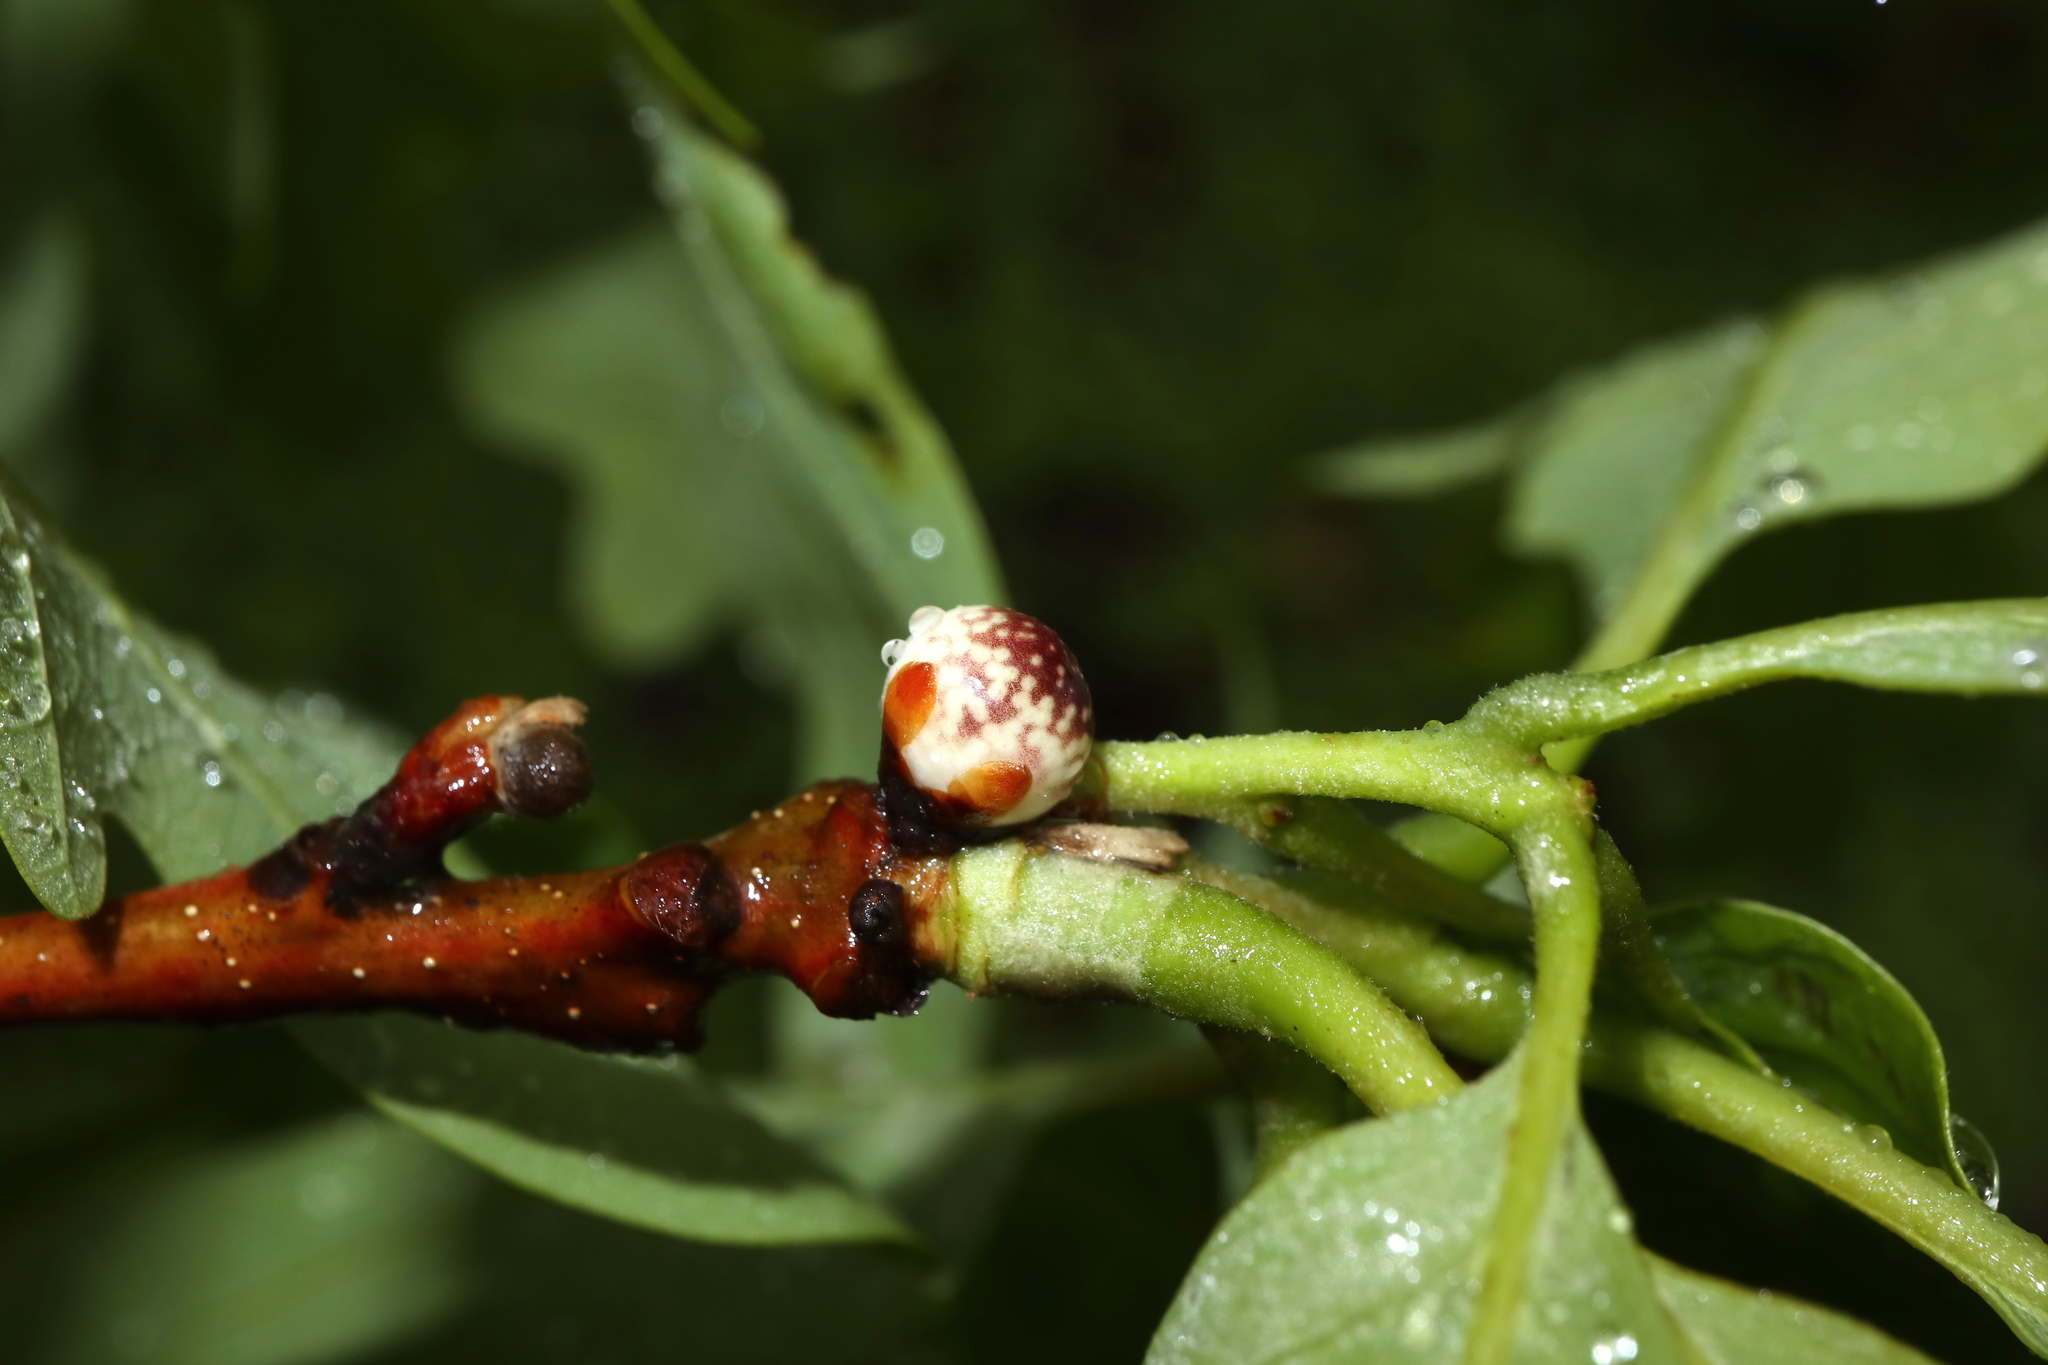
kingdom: Animalia
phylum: Arthropoda
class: Insecta
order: Hymenoptera
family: Cynipidae
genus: Andricus
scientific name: Andricus
